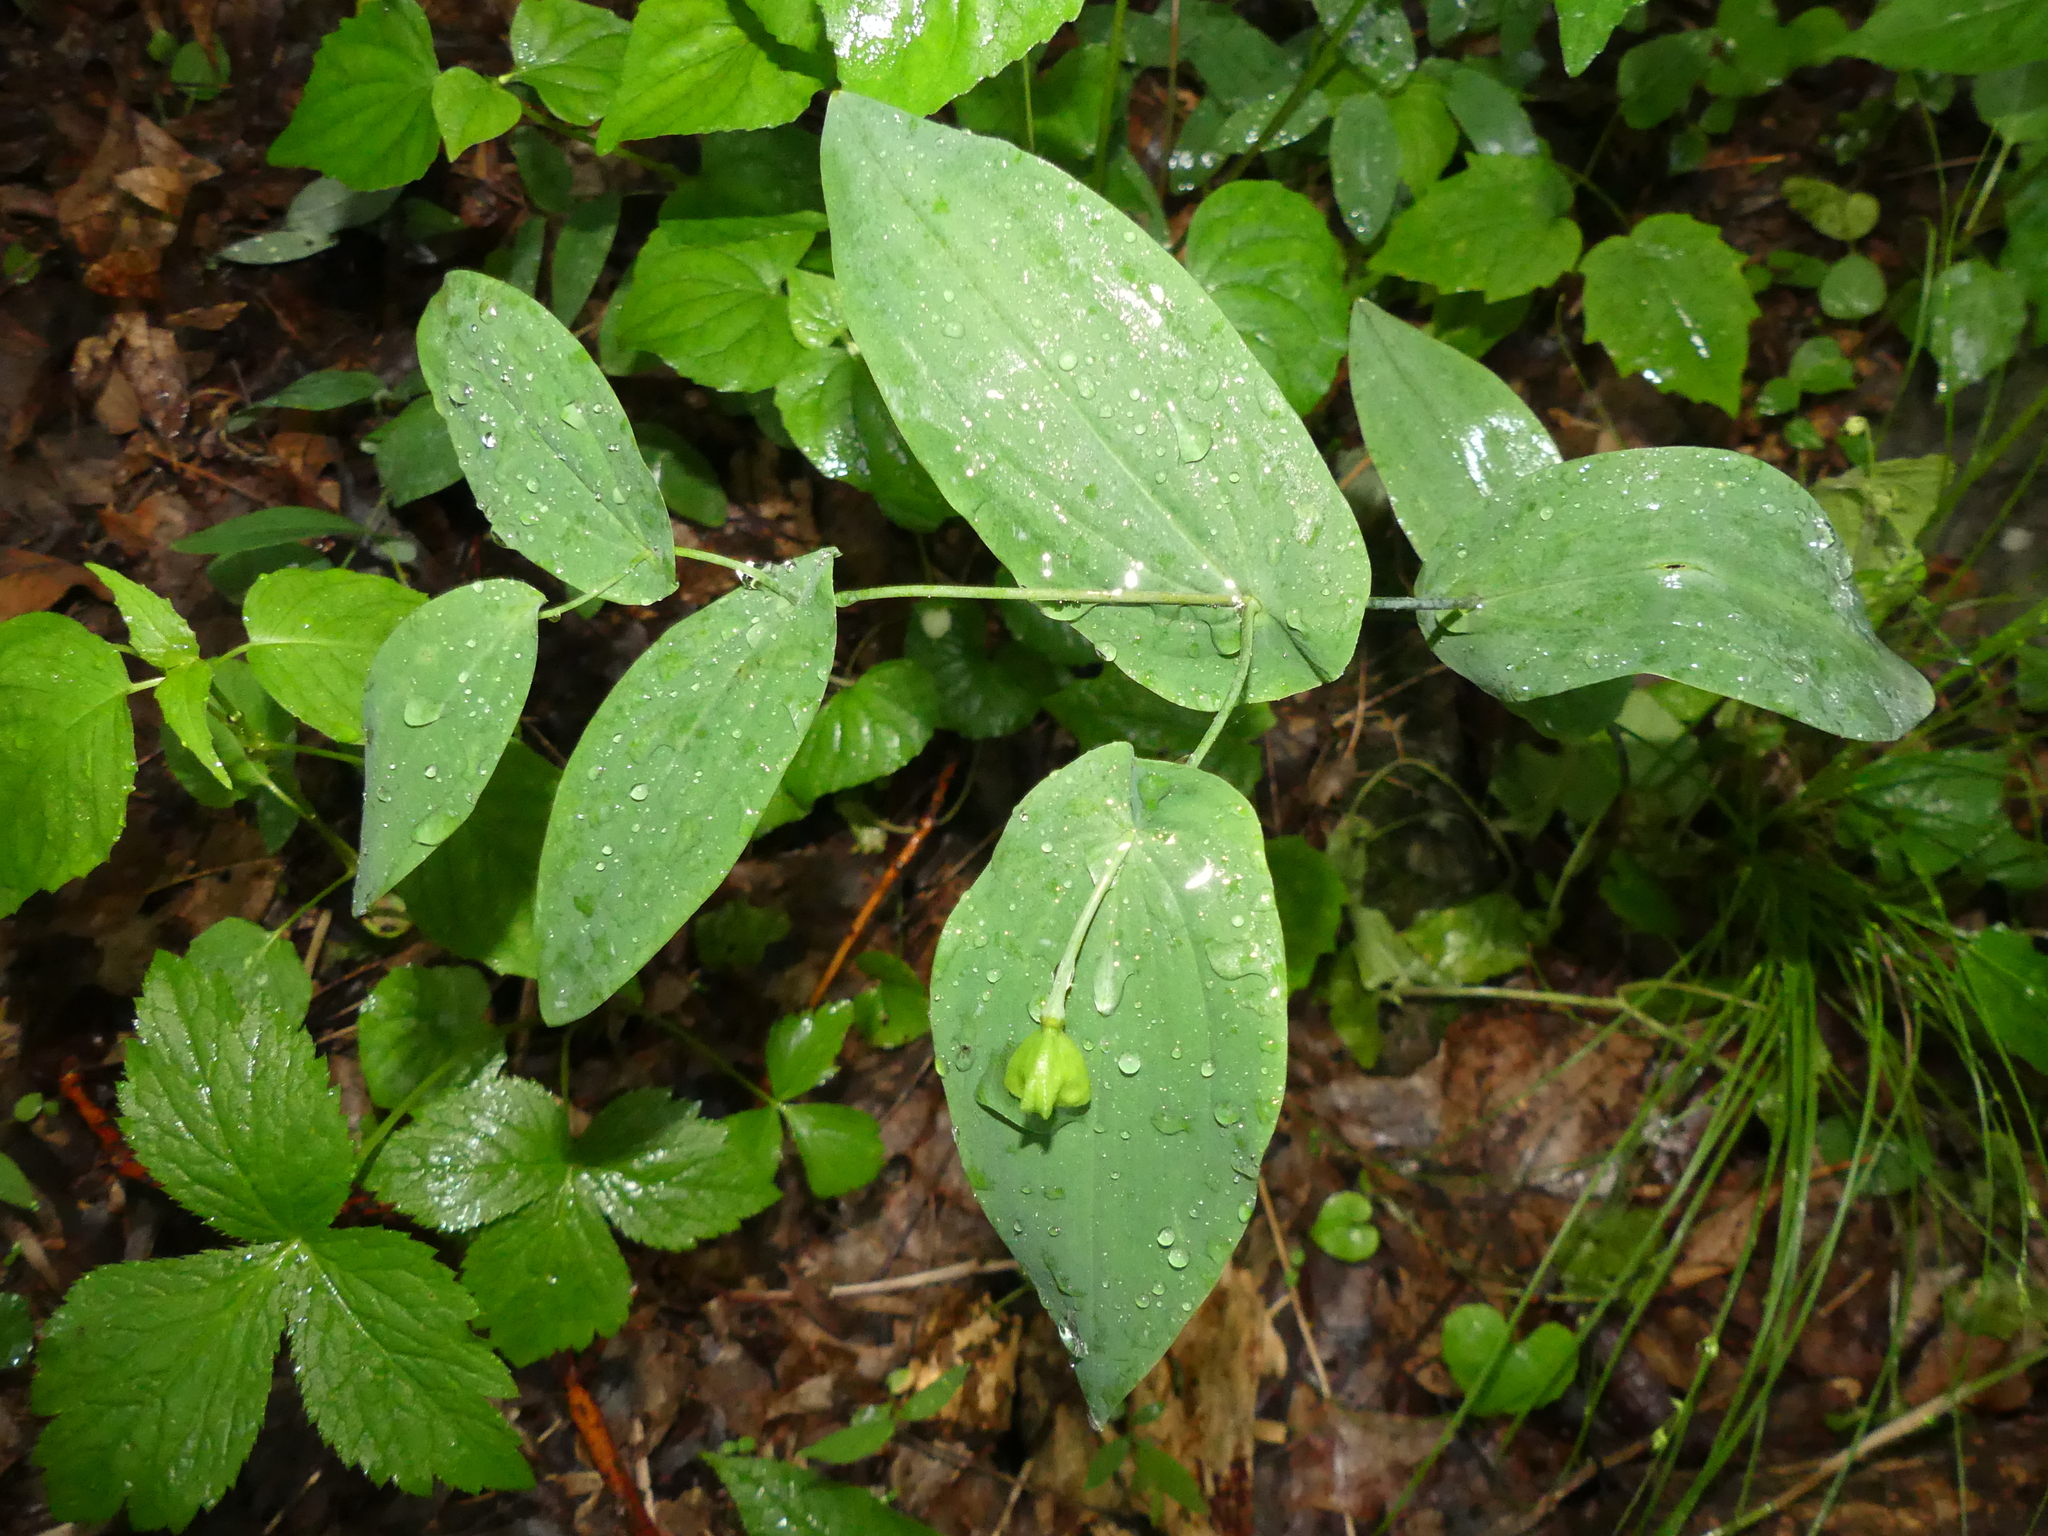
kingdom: Plantae
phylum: Tracheophyta
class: Liliopsida
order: Liliales
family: Colchicaceae
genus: Uvularia
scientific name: Uvularia perfoliata
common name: Perfoliate bellwort
